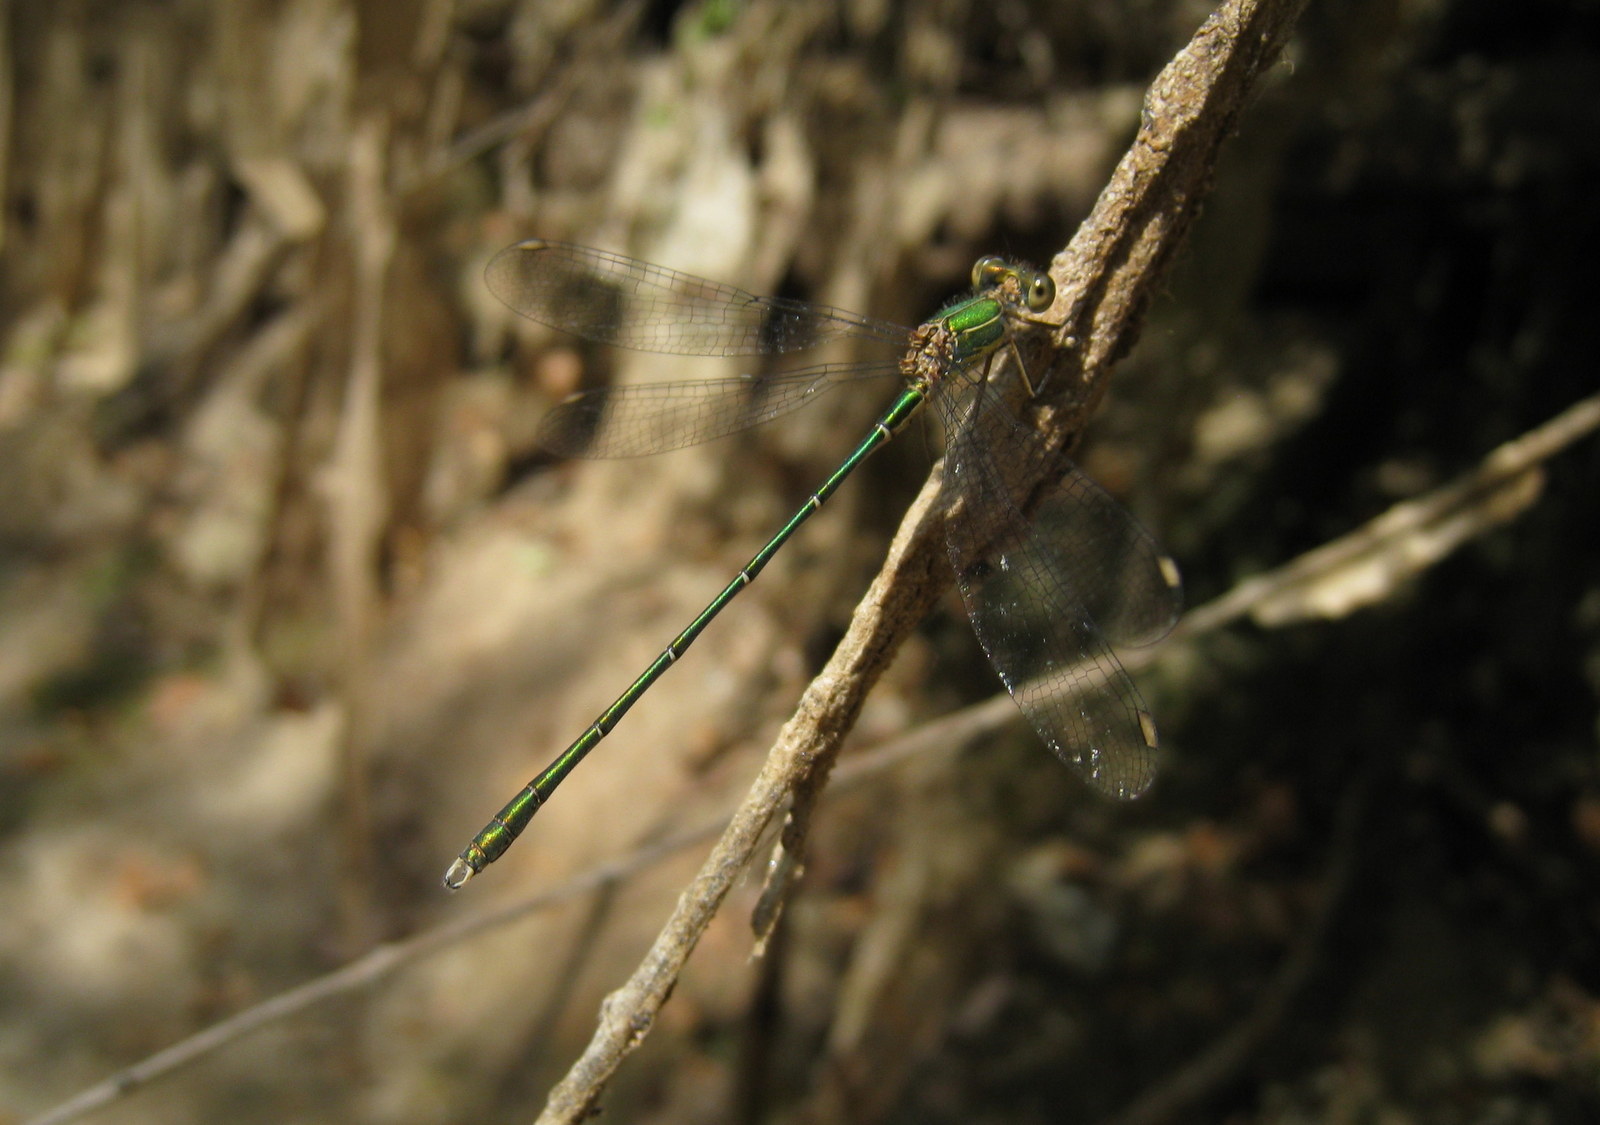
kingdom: Animalia
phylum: Arthropoda
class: Insecta
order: Odonata
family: Lestidae
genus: Chalcolestes
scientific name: Chalcolestes viridis
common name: Green emerald damselfly
